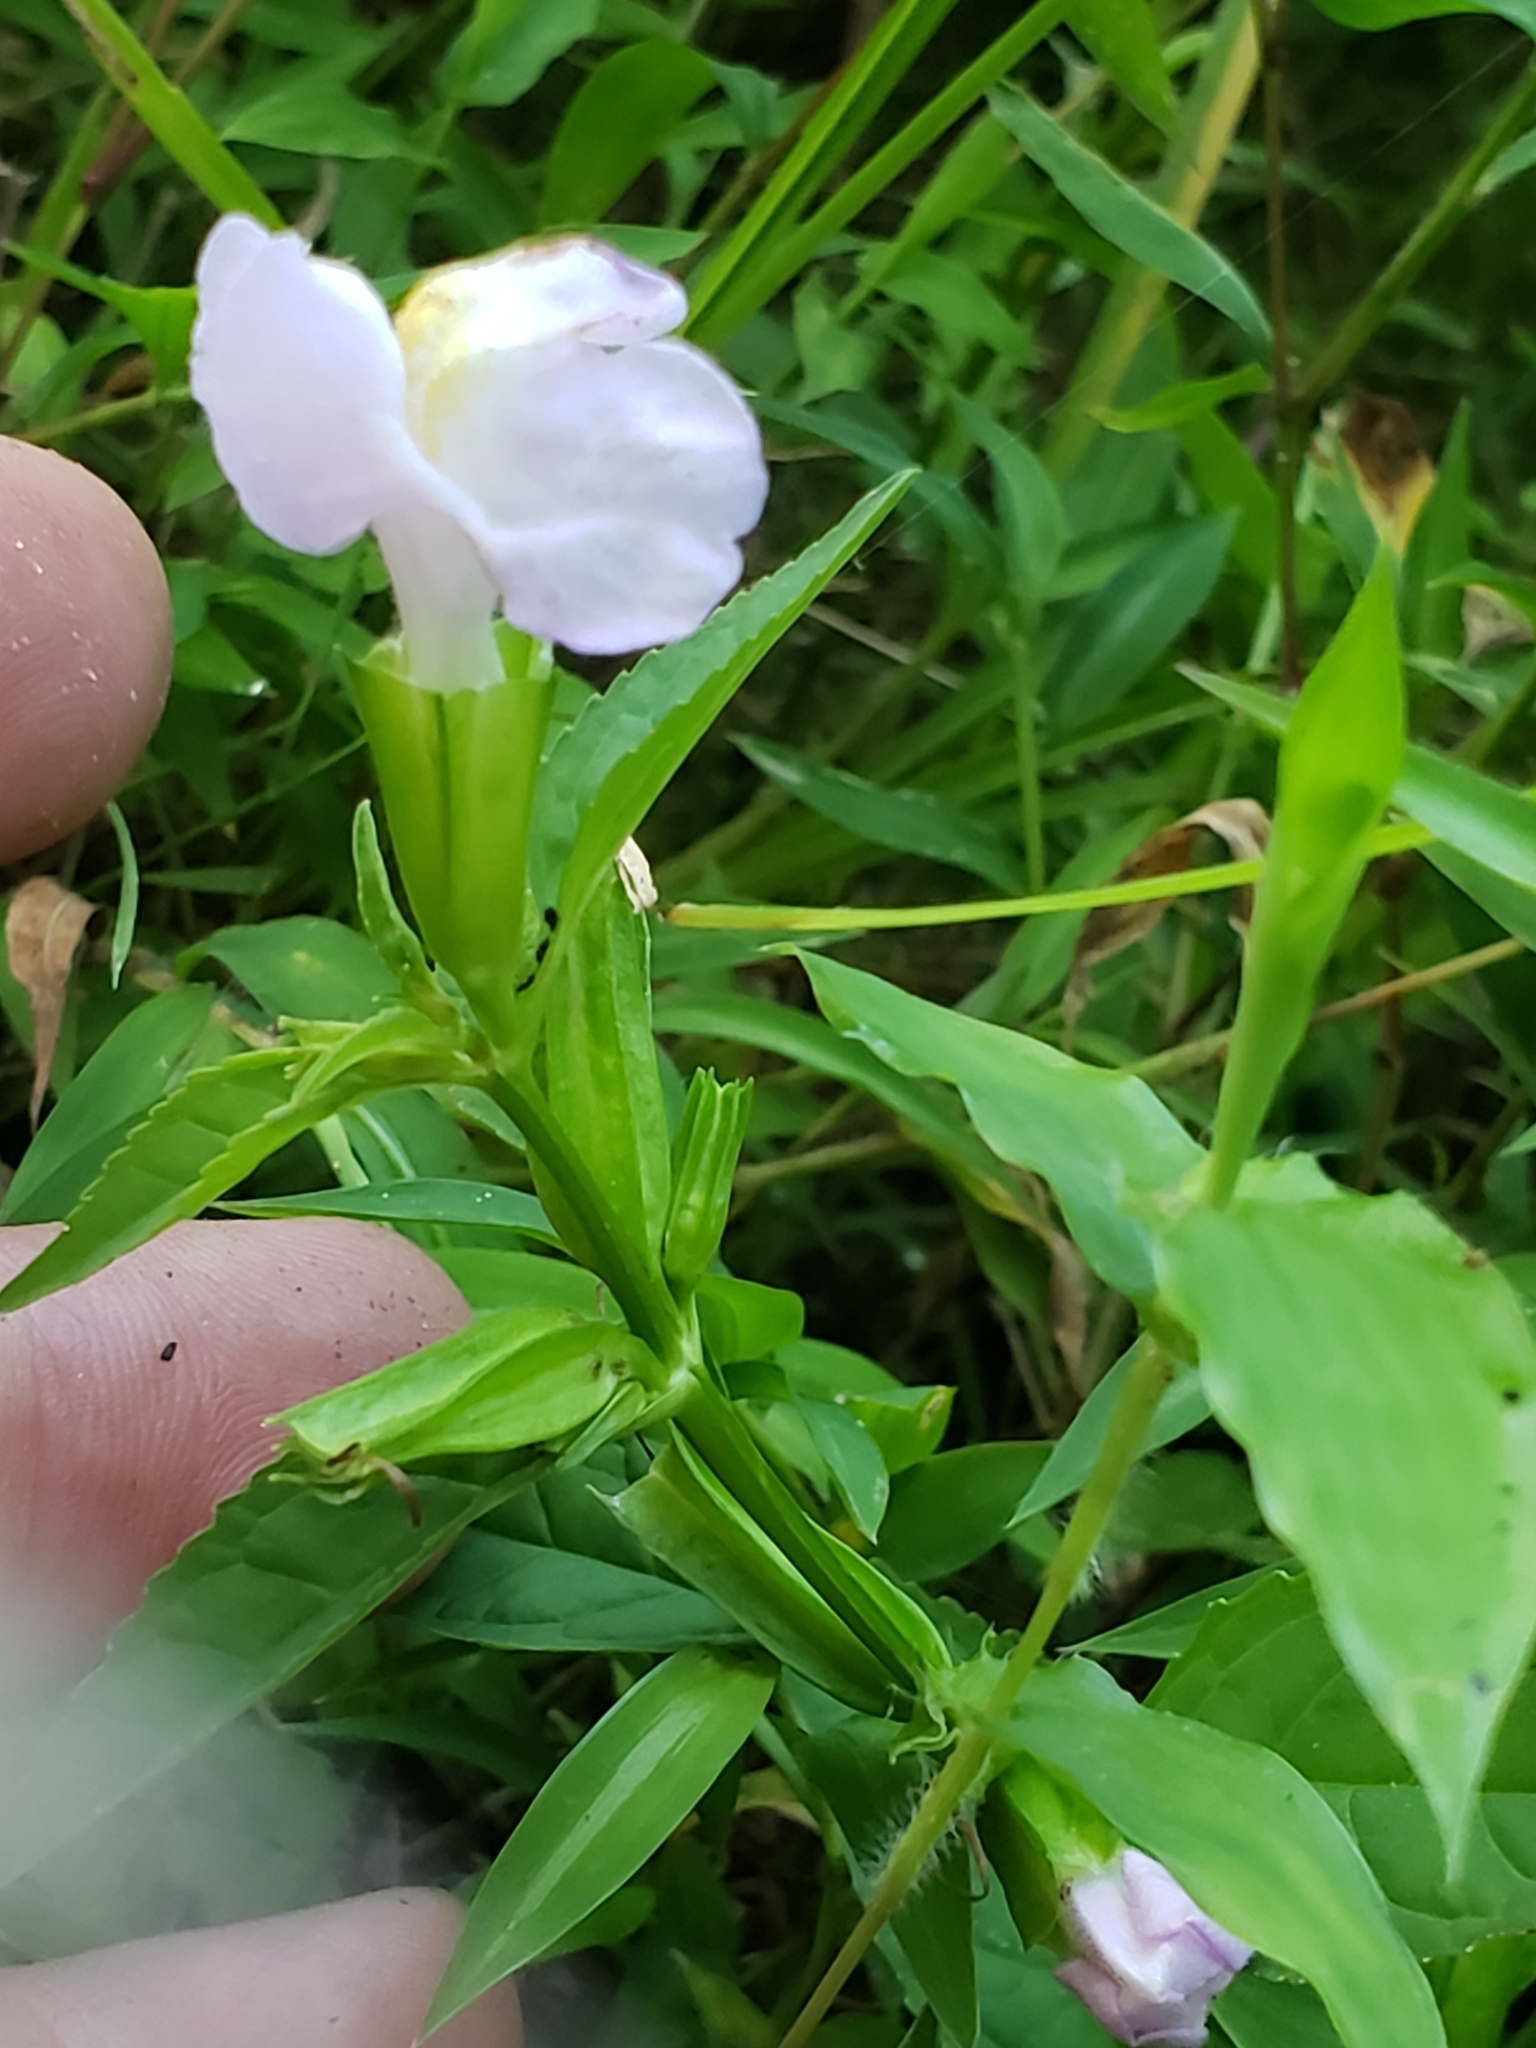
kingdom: Plantae
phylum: Tracheophyta
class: Magnoliopsida
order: Lamiales
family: Phrymaceae
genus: Mimulus
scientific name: Mimulus alatus
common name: Sharp-wing monkey-flower
